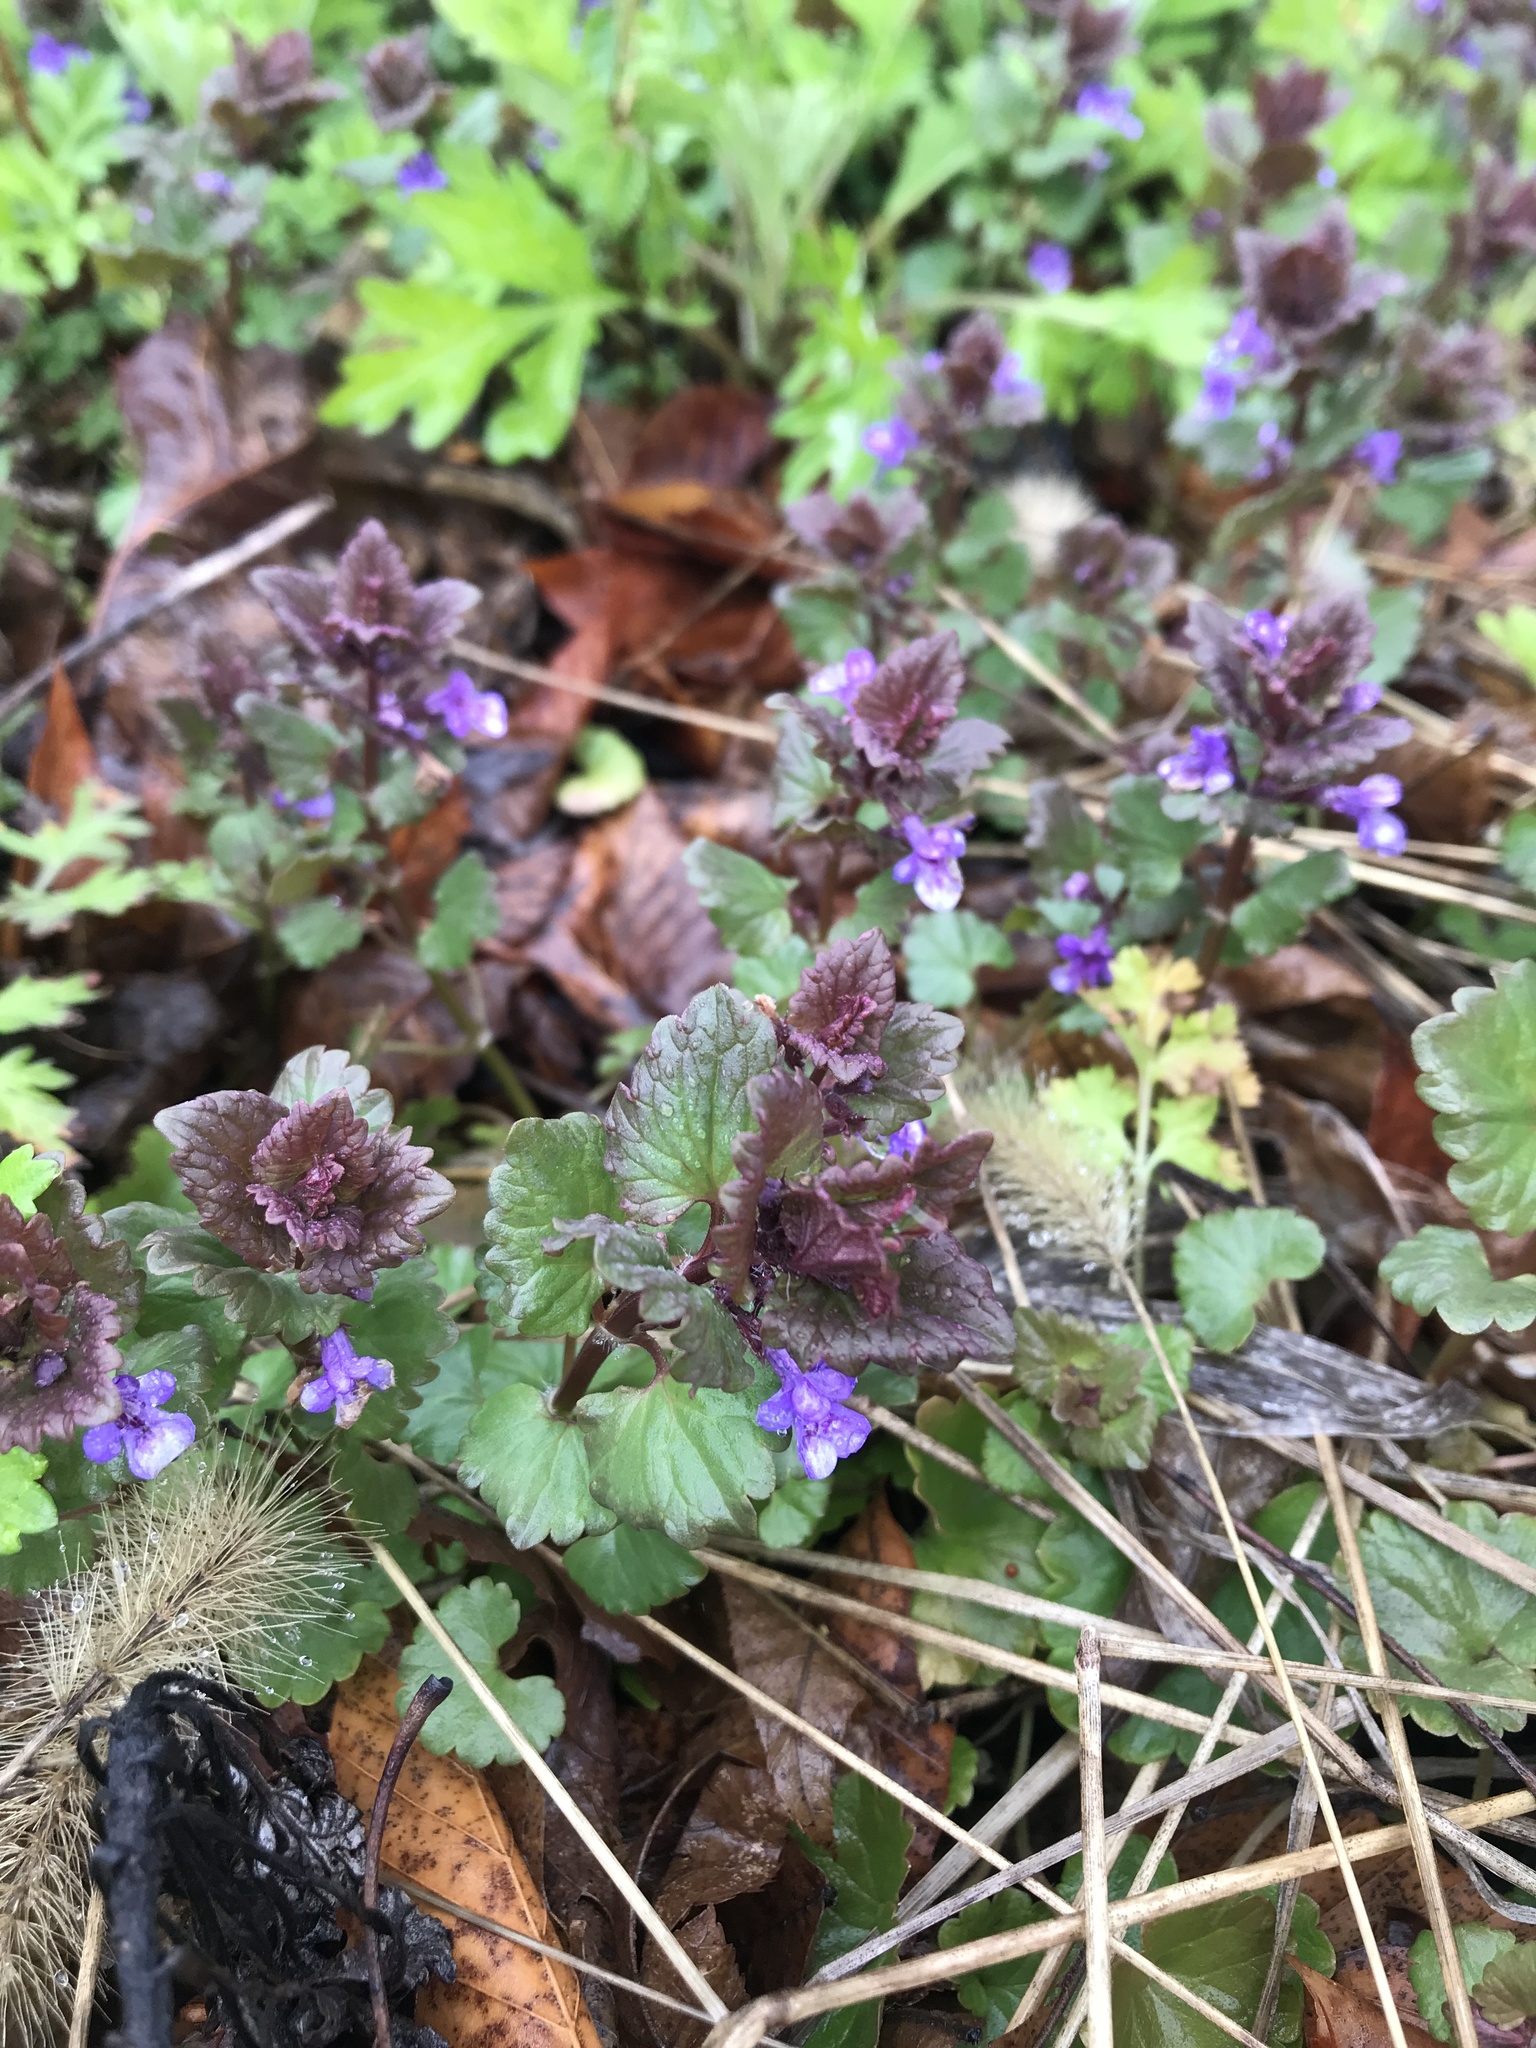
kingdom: Plantae
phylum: Tracheophyta
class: Magnoliopsida
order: Lamiales
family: Lamiaceae
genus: Glechoma
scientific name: Glechoma hederacea
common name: Ground ivy
